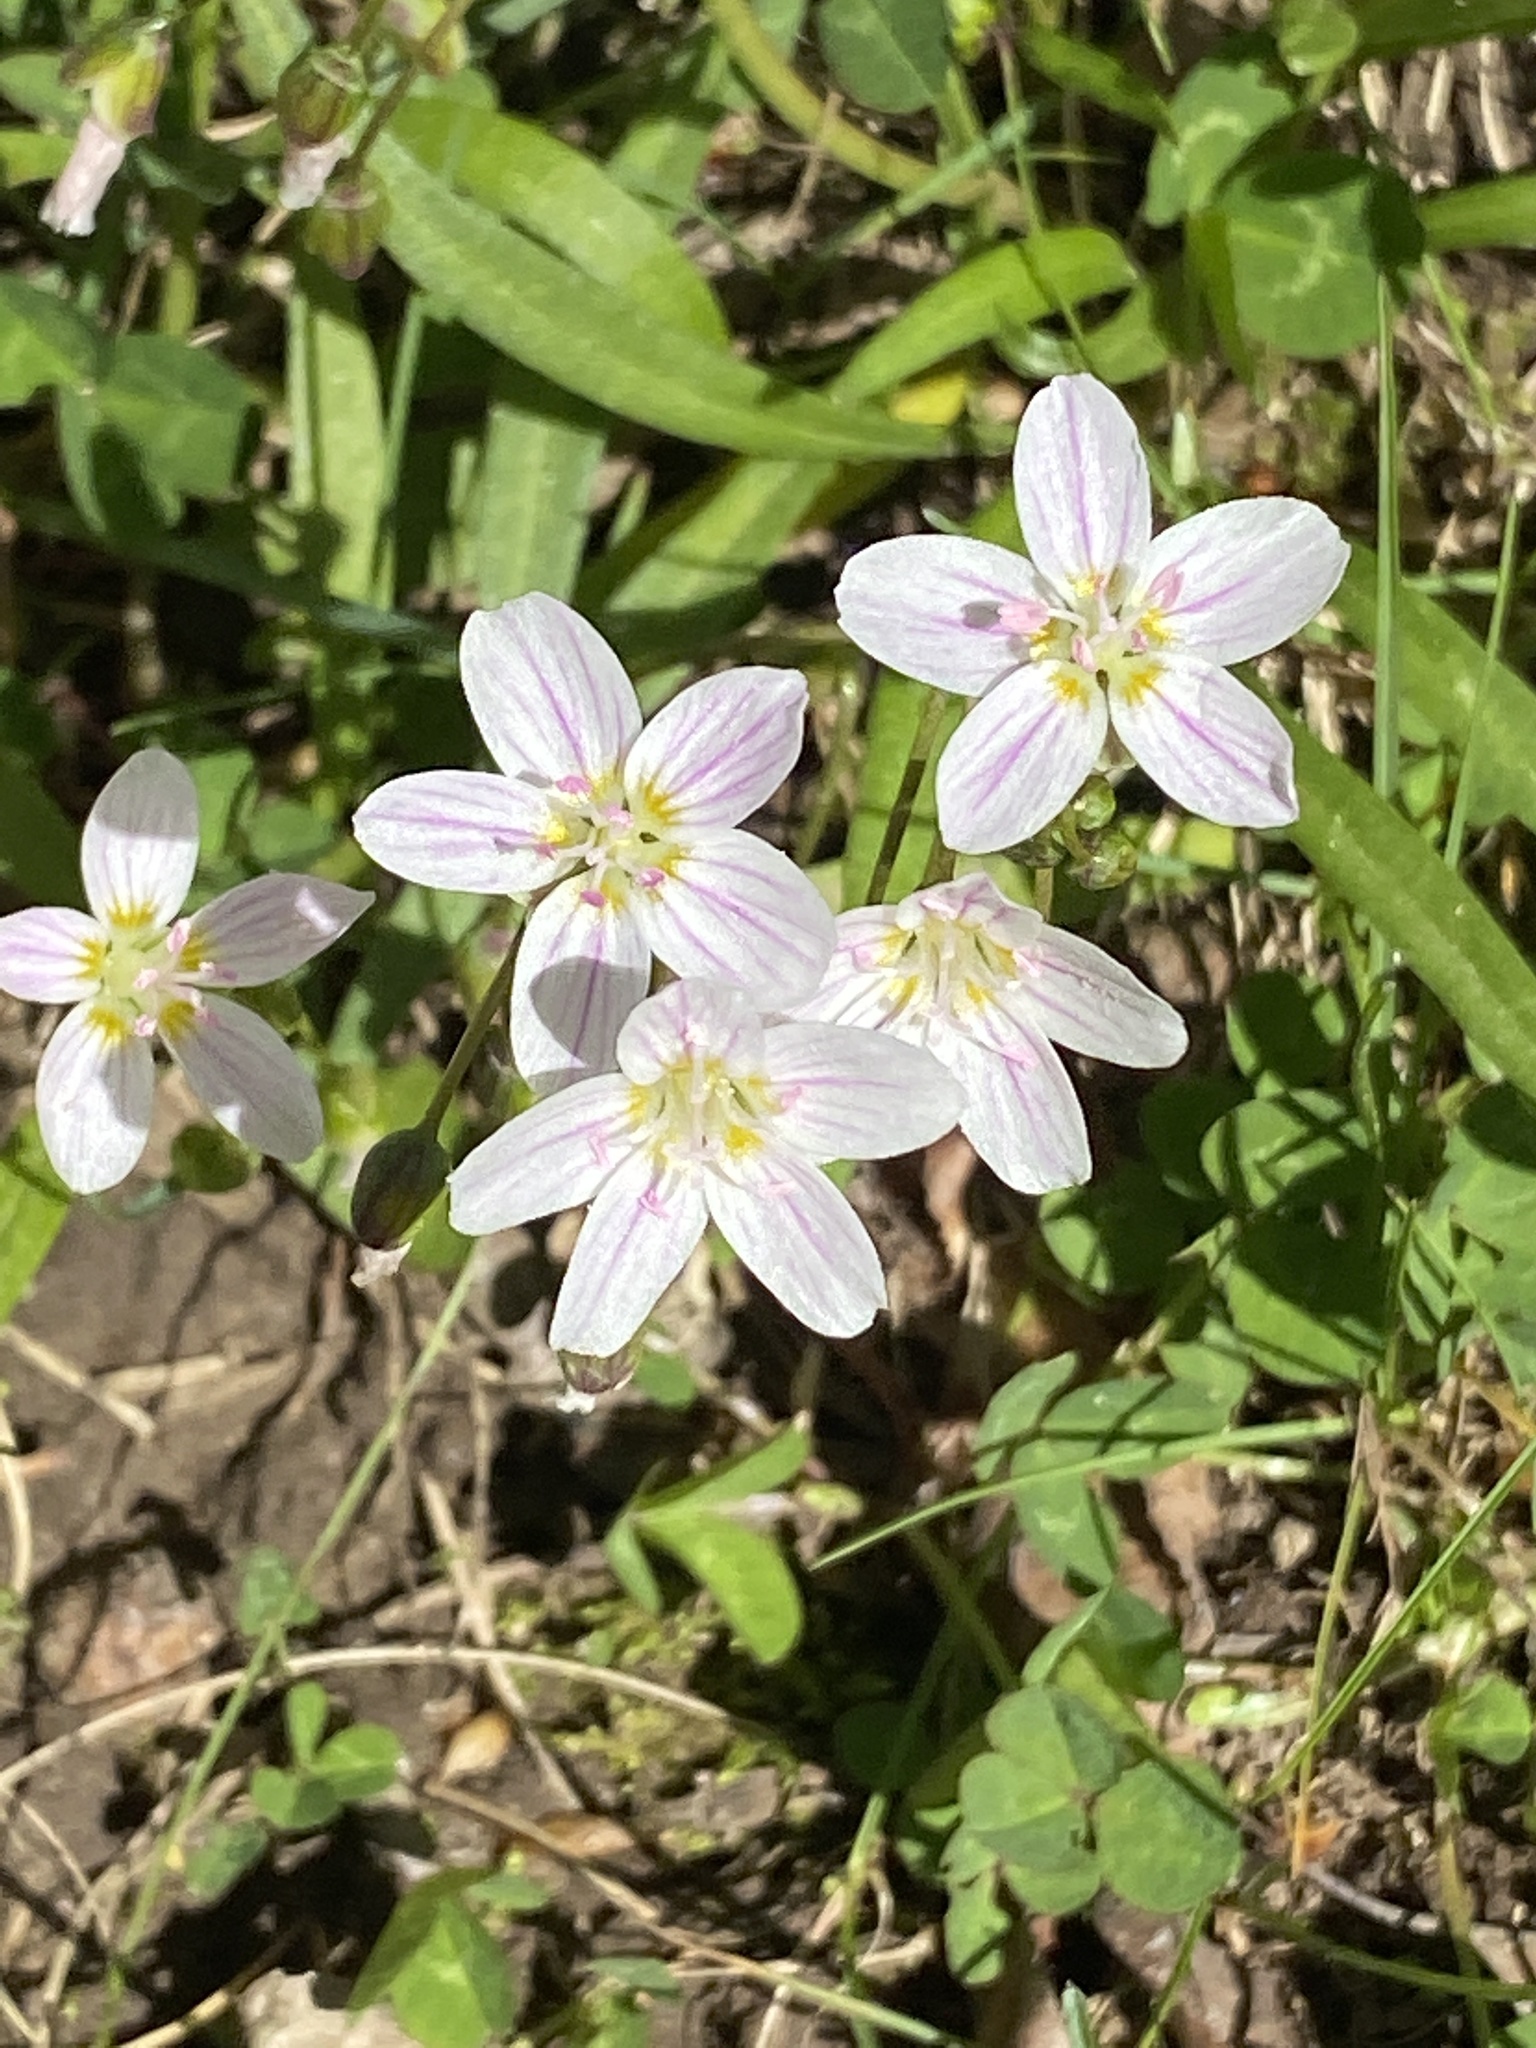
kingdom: Plantae
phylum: Tracheophyta
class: Magnoliopsida
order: Caryophyllales
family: Montiaceae
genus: Claytonia
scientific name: Claytonia virginica
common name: Virginia springbeauty
